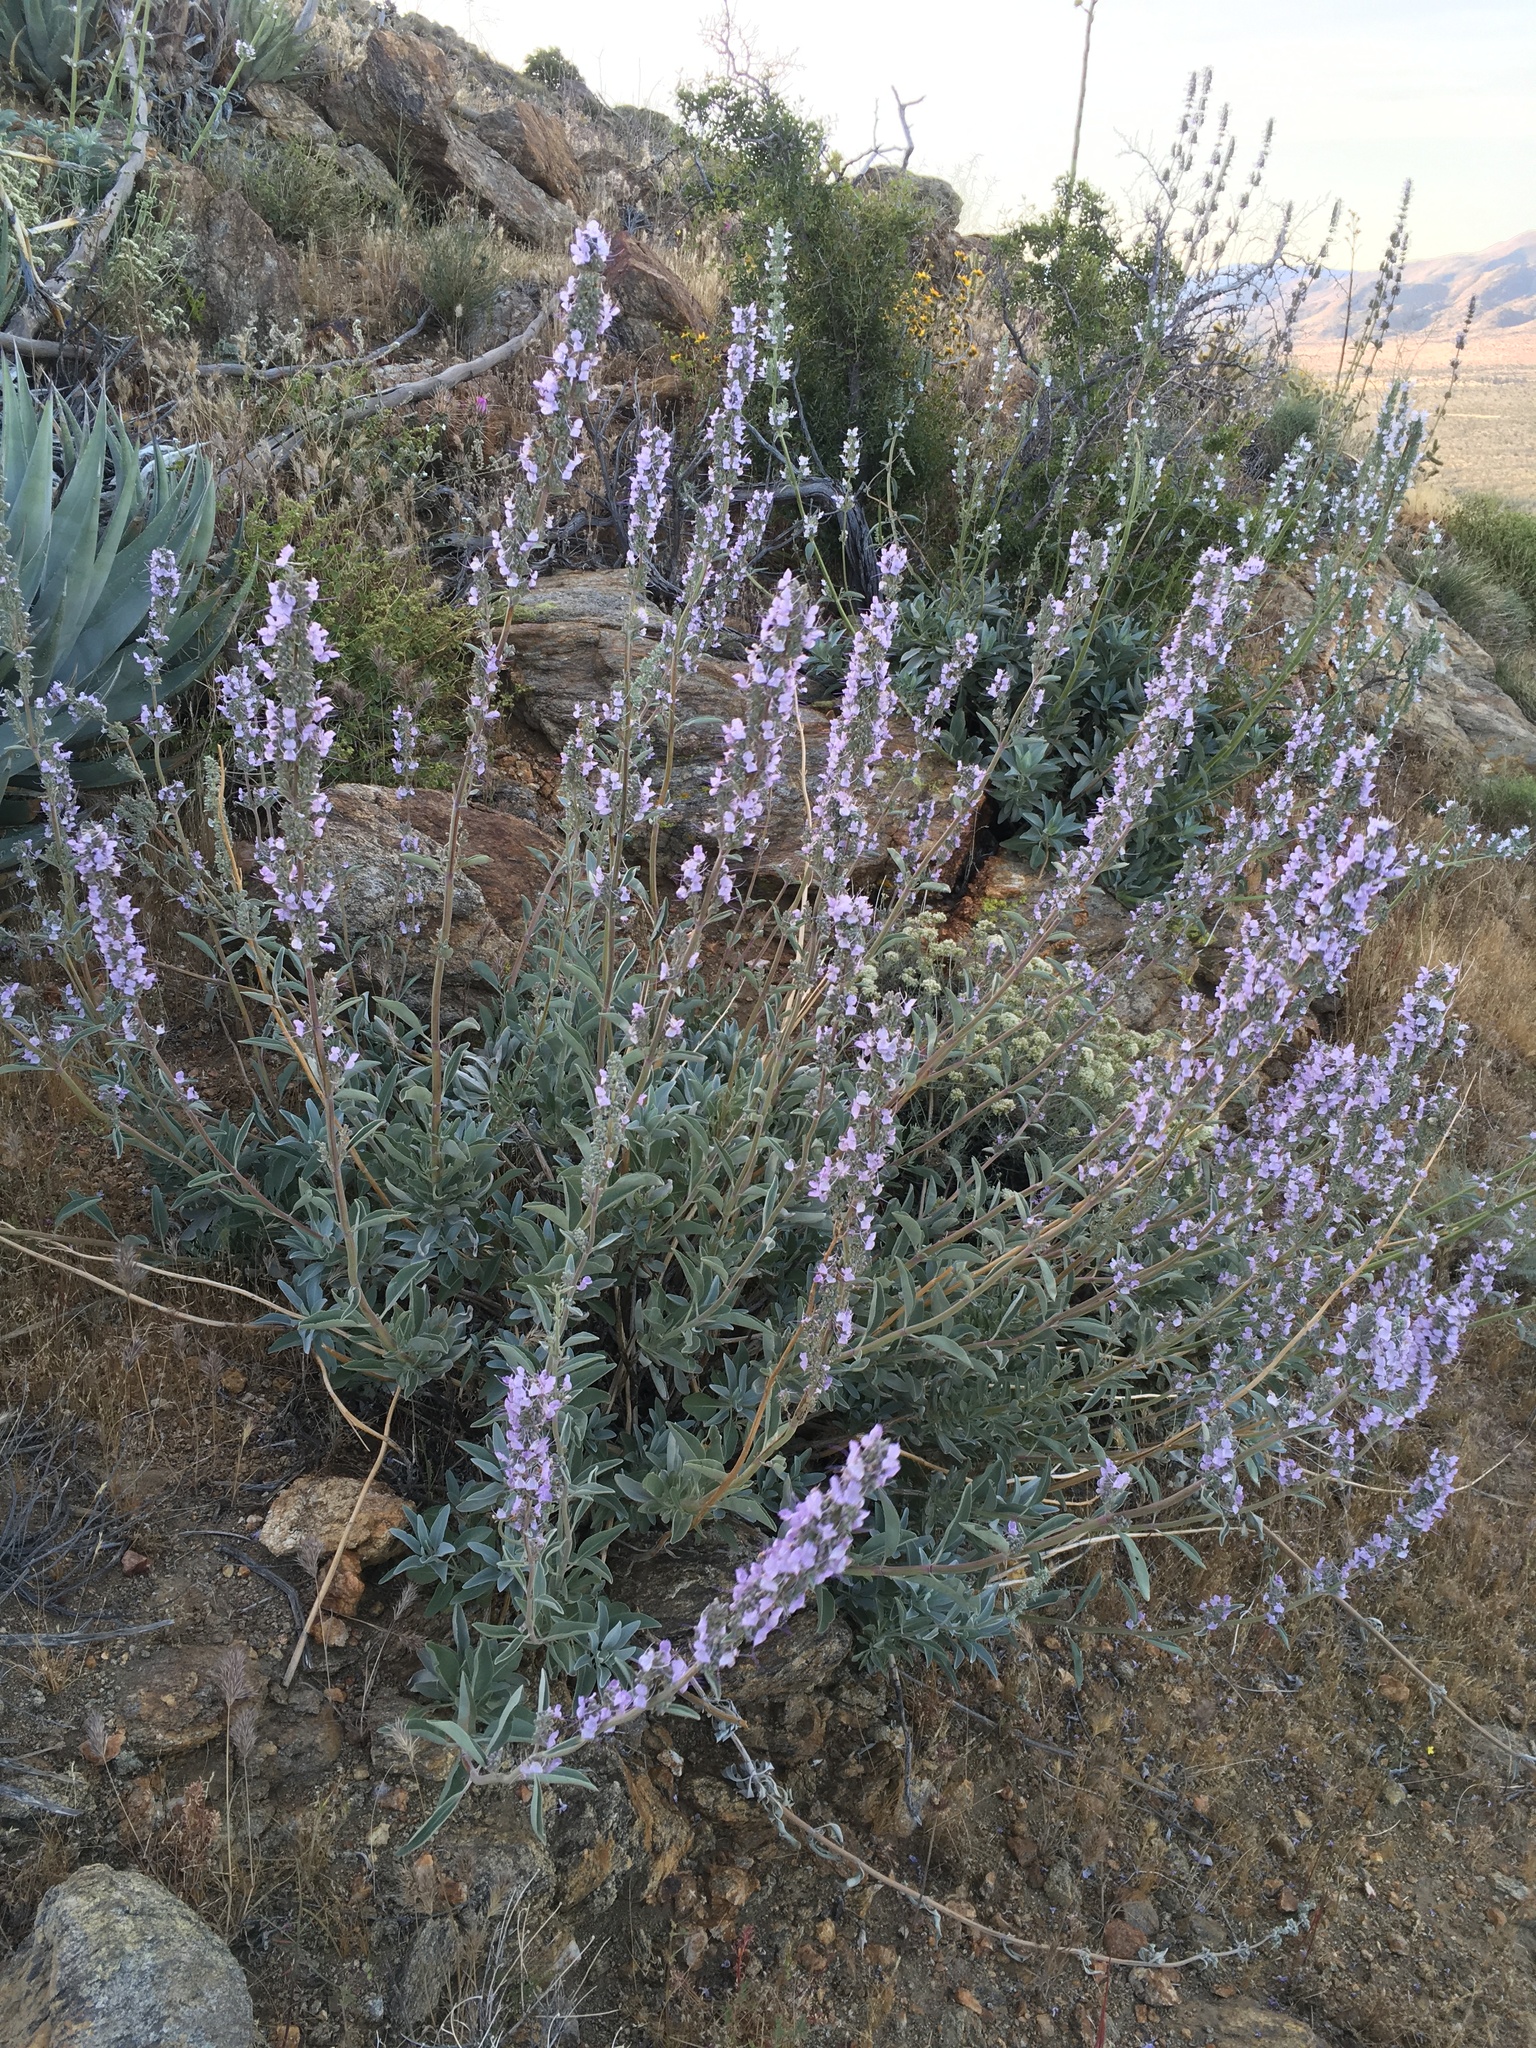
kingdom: Plantae
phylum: Tracheophyta
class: Magnoliopsida
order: Lamiales
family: Lamiaceae
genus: Salvia
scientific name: Salvia apiana
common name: White sage
